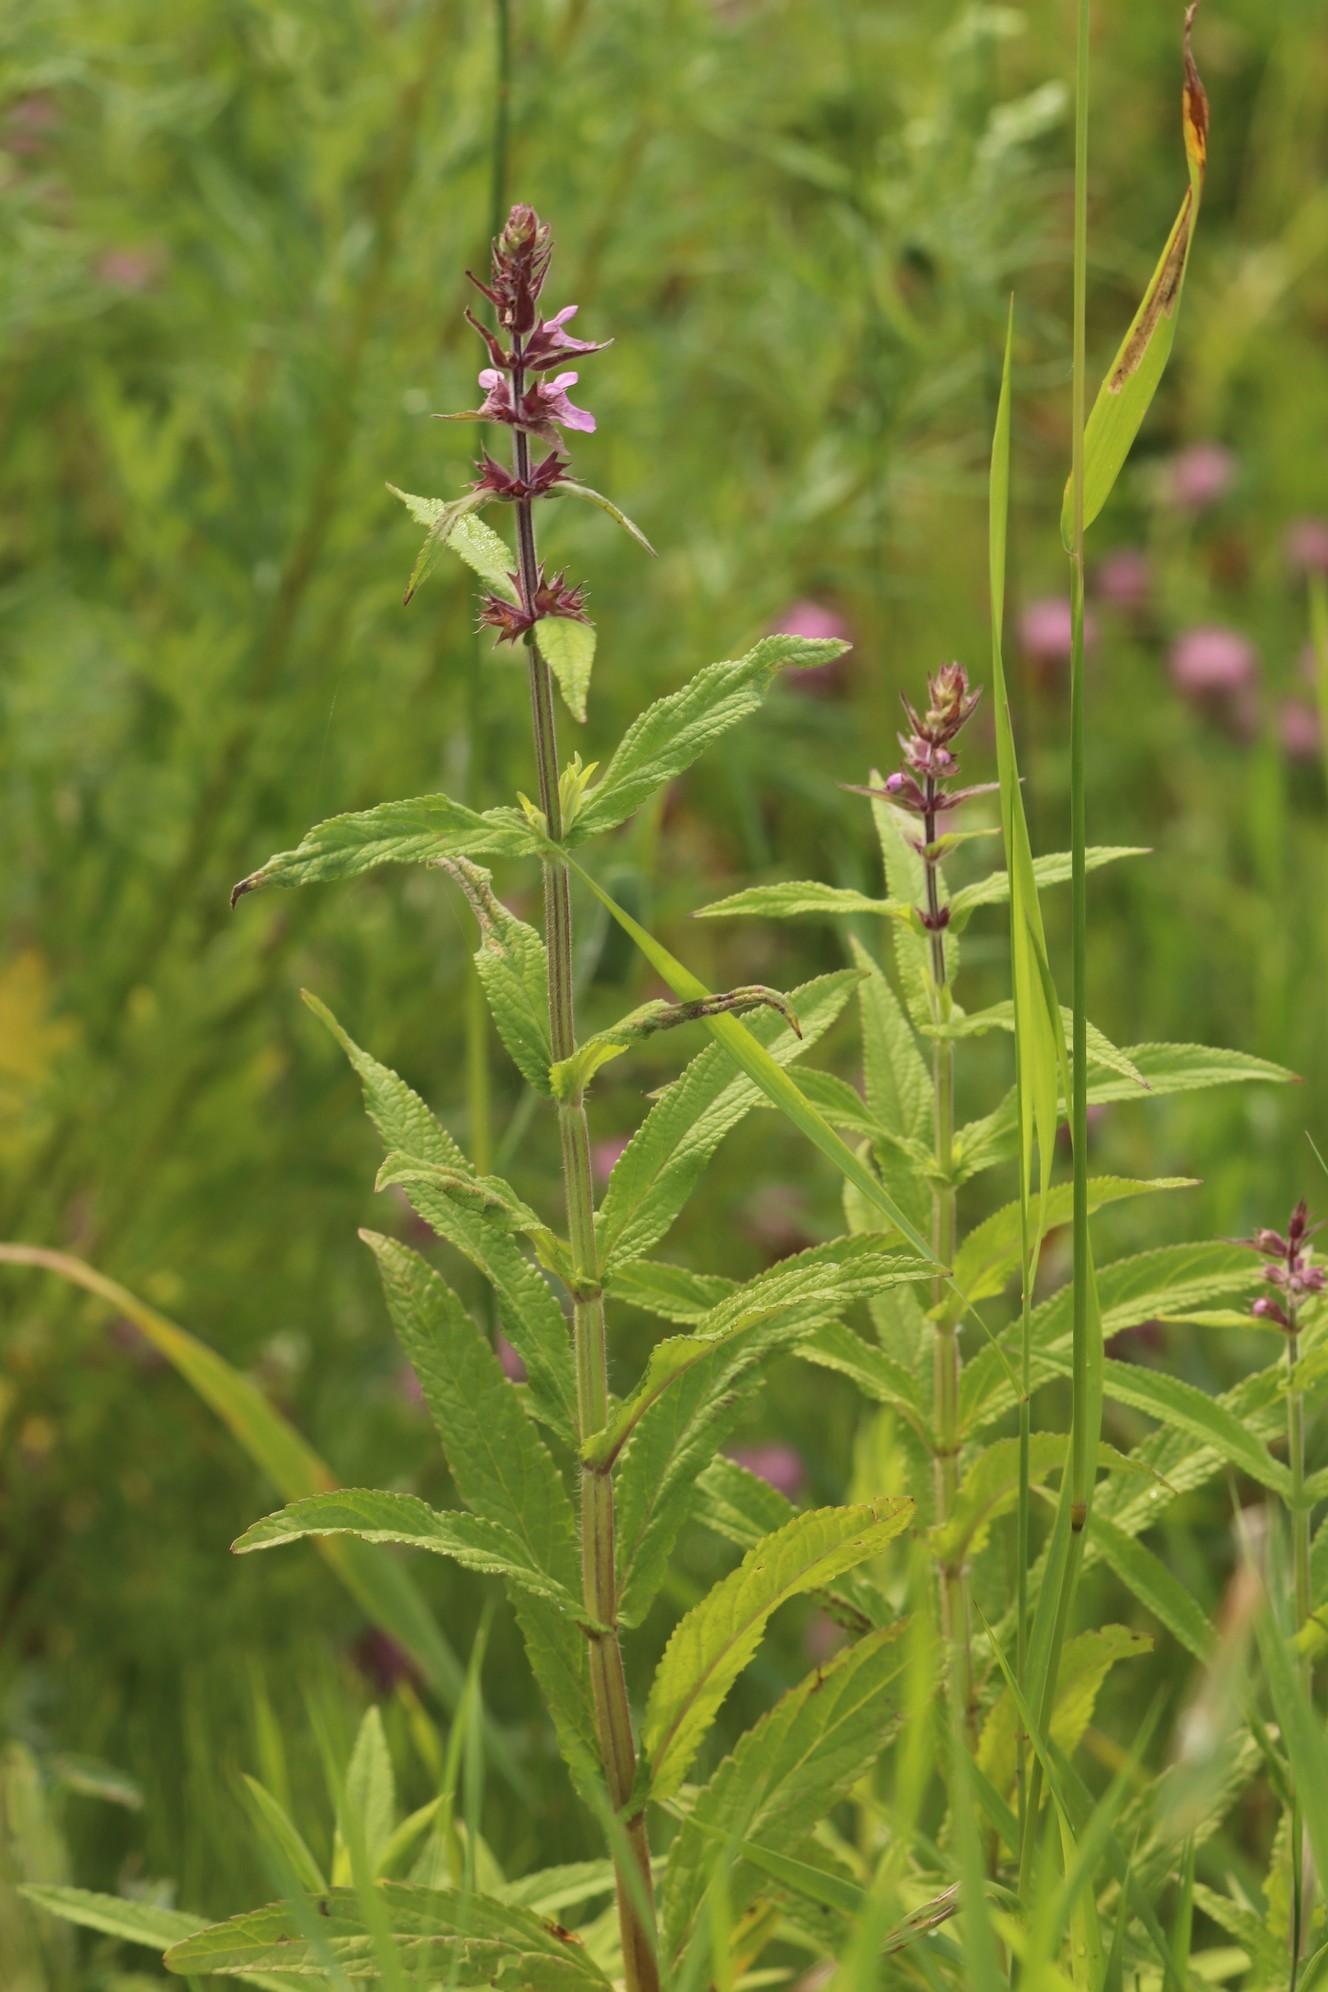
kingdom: Plantae
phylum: Tracheophyta
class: Magnoliopsida
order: Lamiales
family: Lamiaceae
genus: Stachys
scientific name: Stachys palustris
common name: Marsh woundwort
